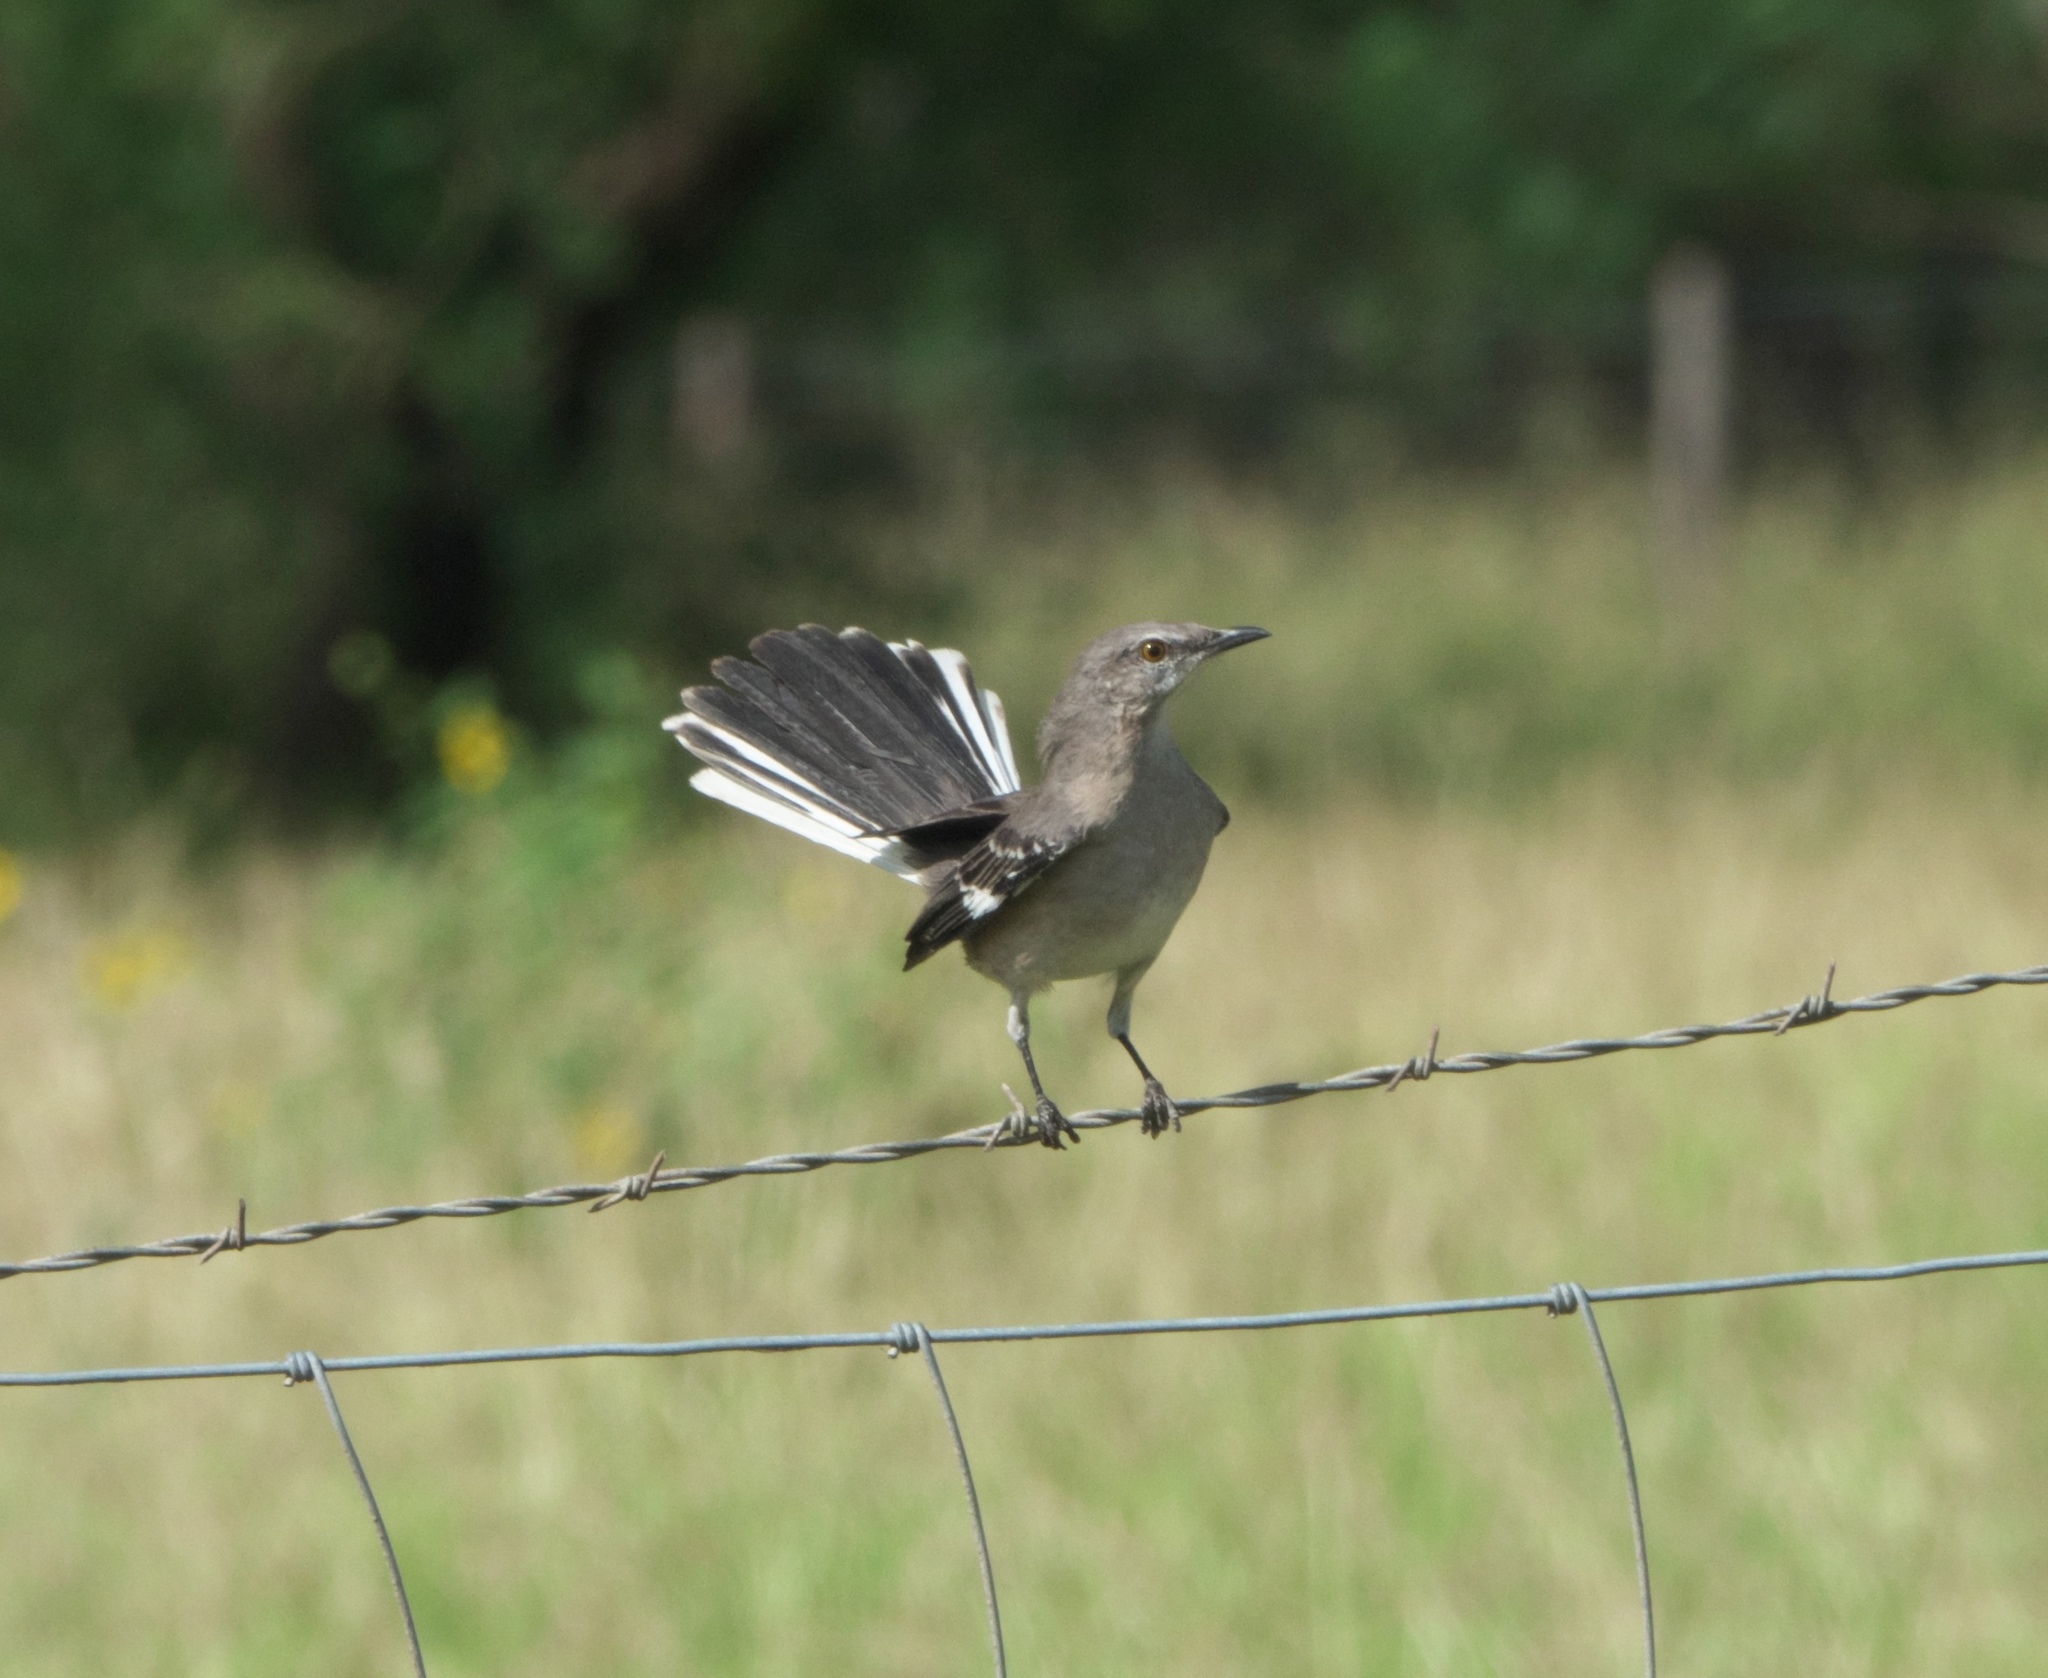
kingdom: Animalia
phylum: Chordata
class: Aves
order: Passeriformes
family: Mimidae
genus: Mimus
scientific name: Mimus polyglottos
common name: Northern mockingbird
